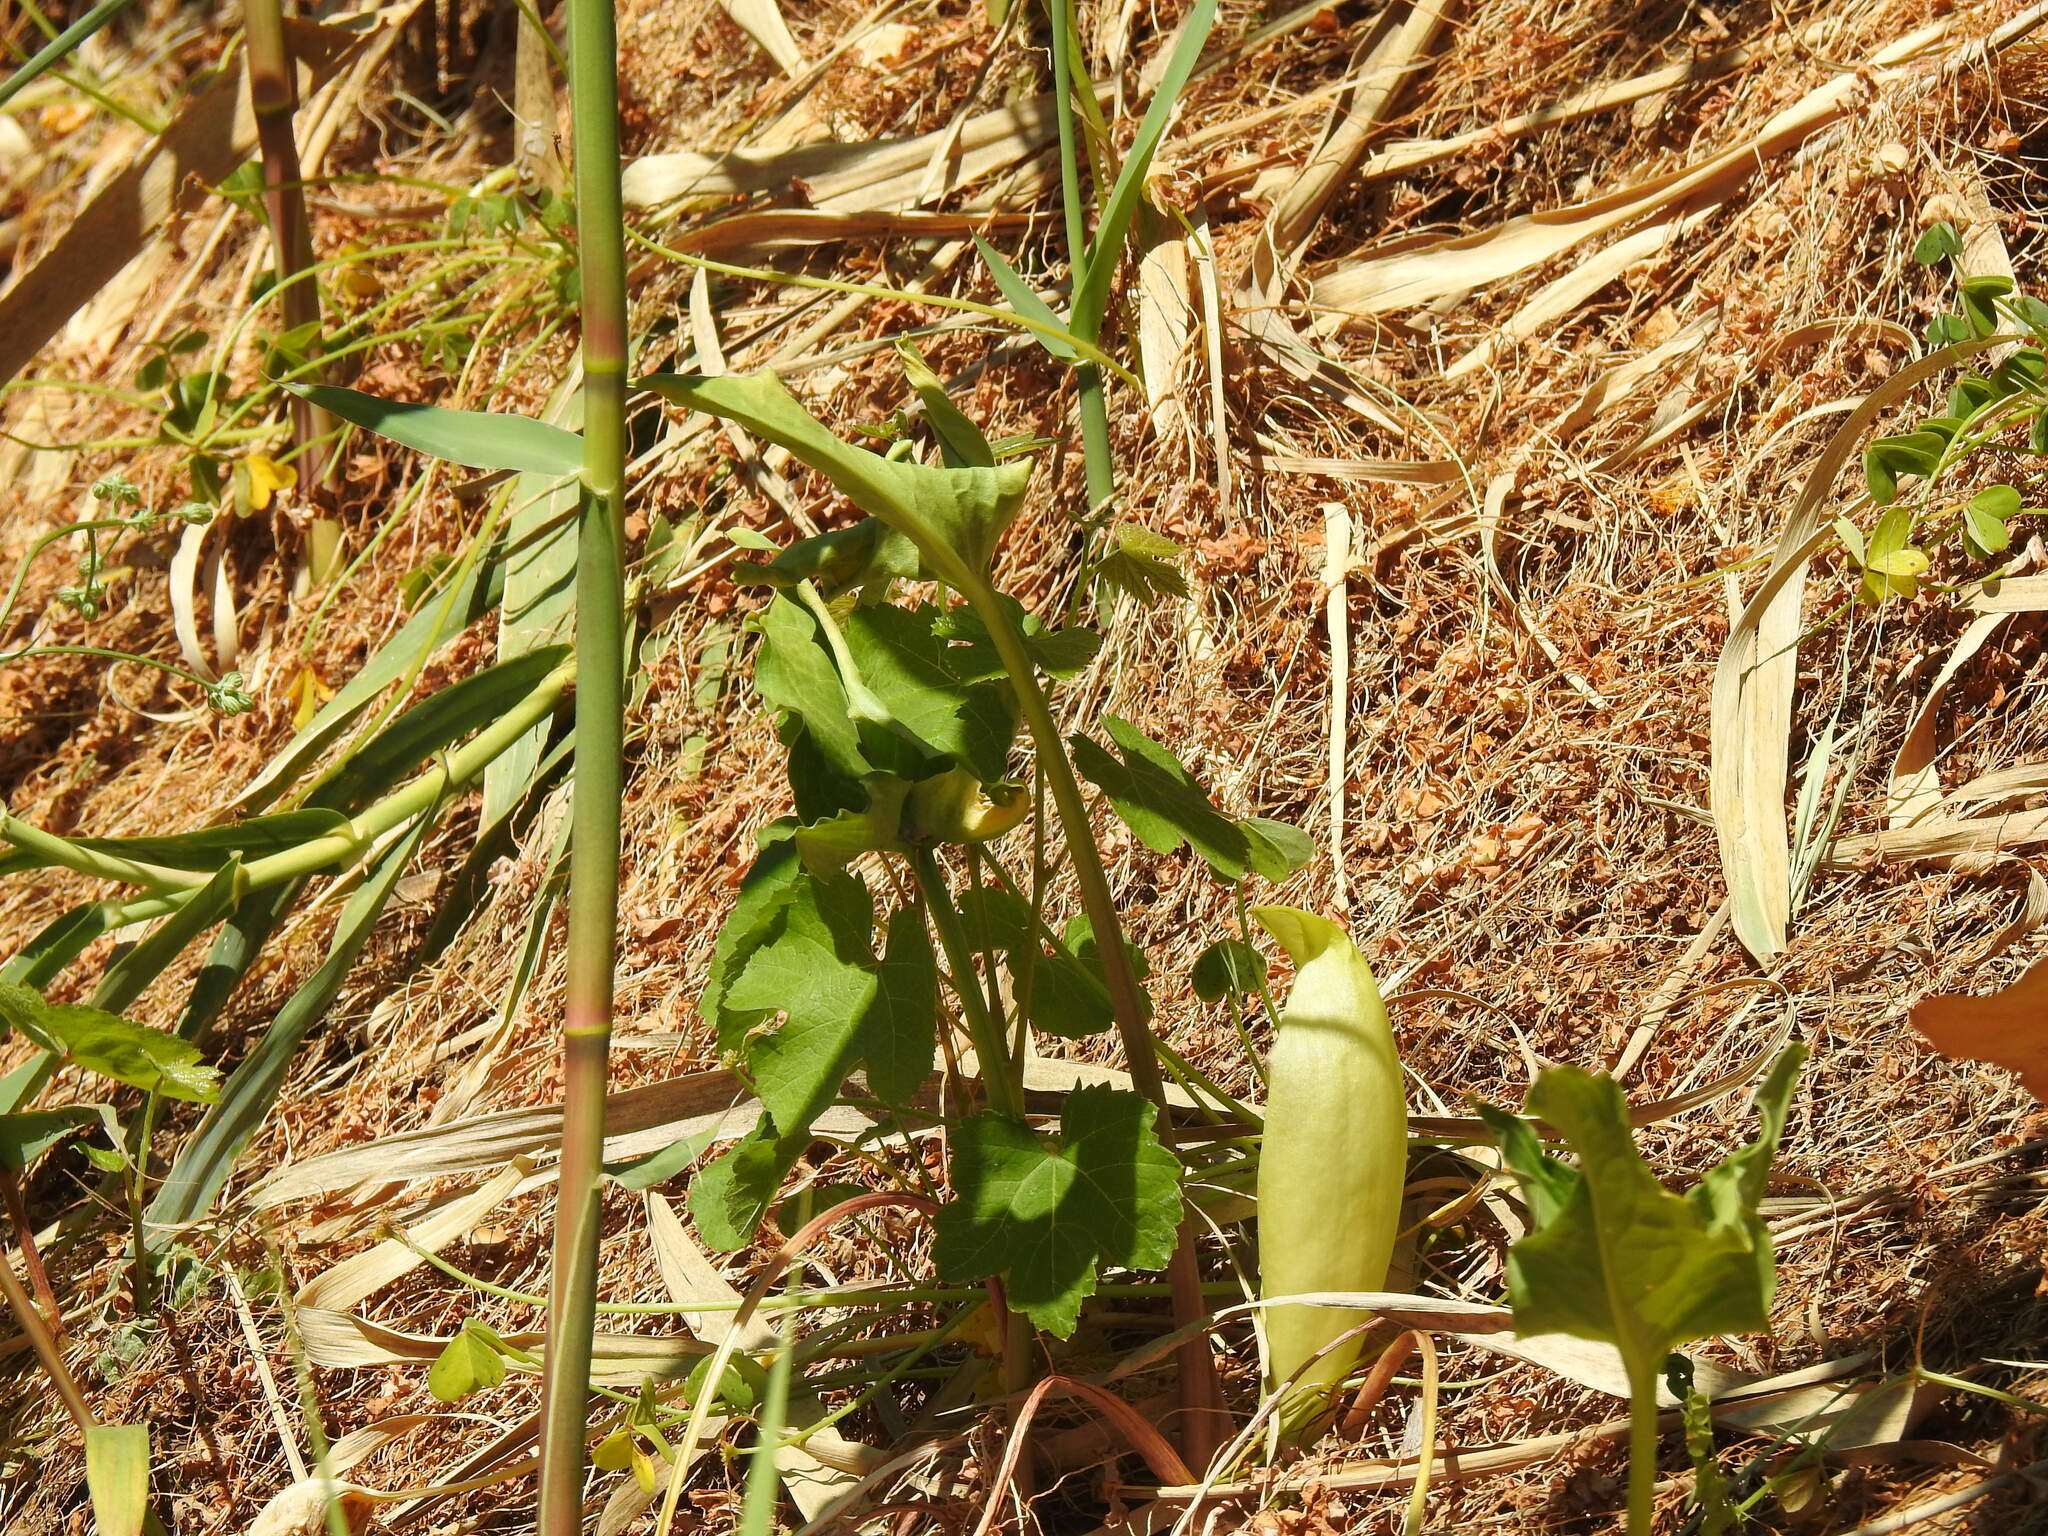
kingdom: Plantae
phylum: Tracheophyta
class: Liliopsida
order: Alismatales
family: Araceae
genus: Arum
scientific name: Arum italicum
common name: Italian lords-and-ladies
